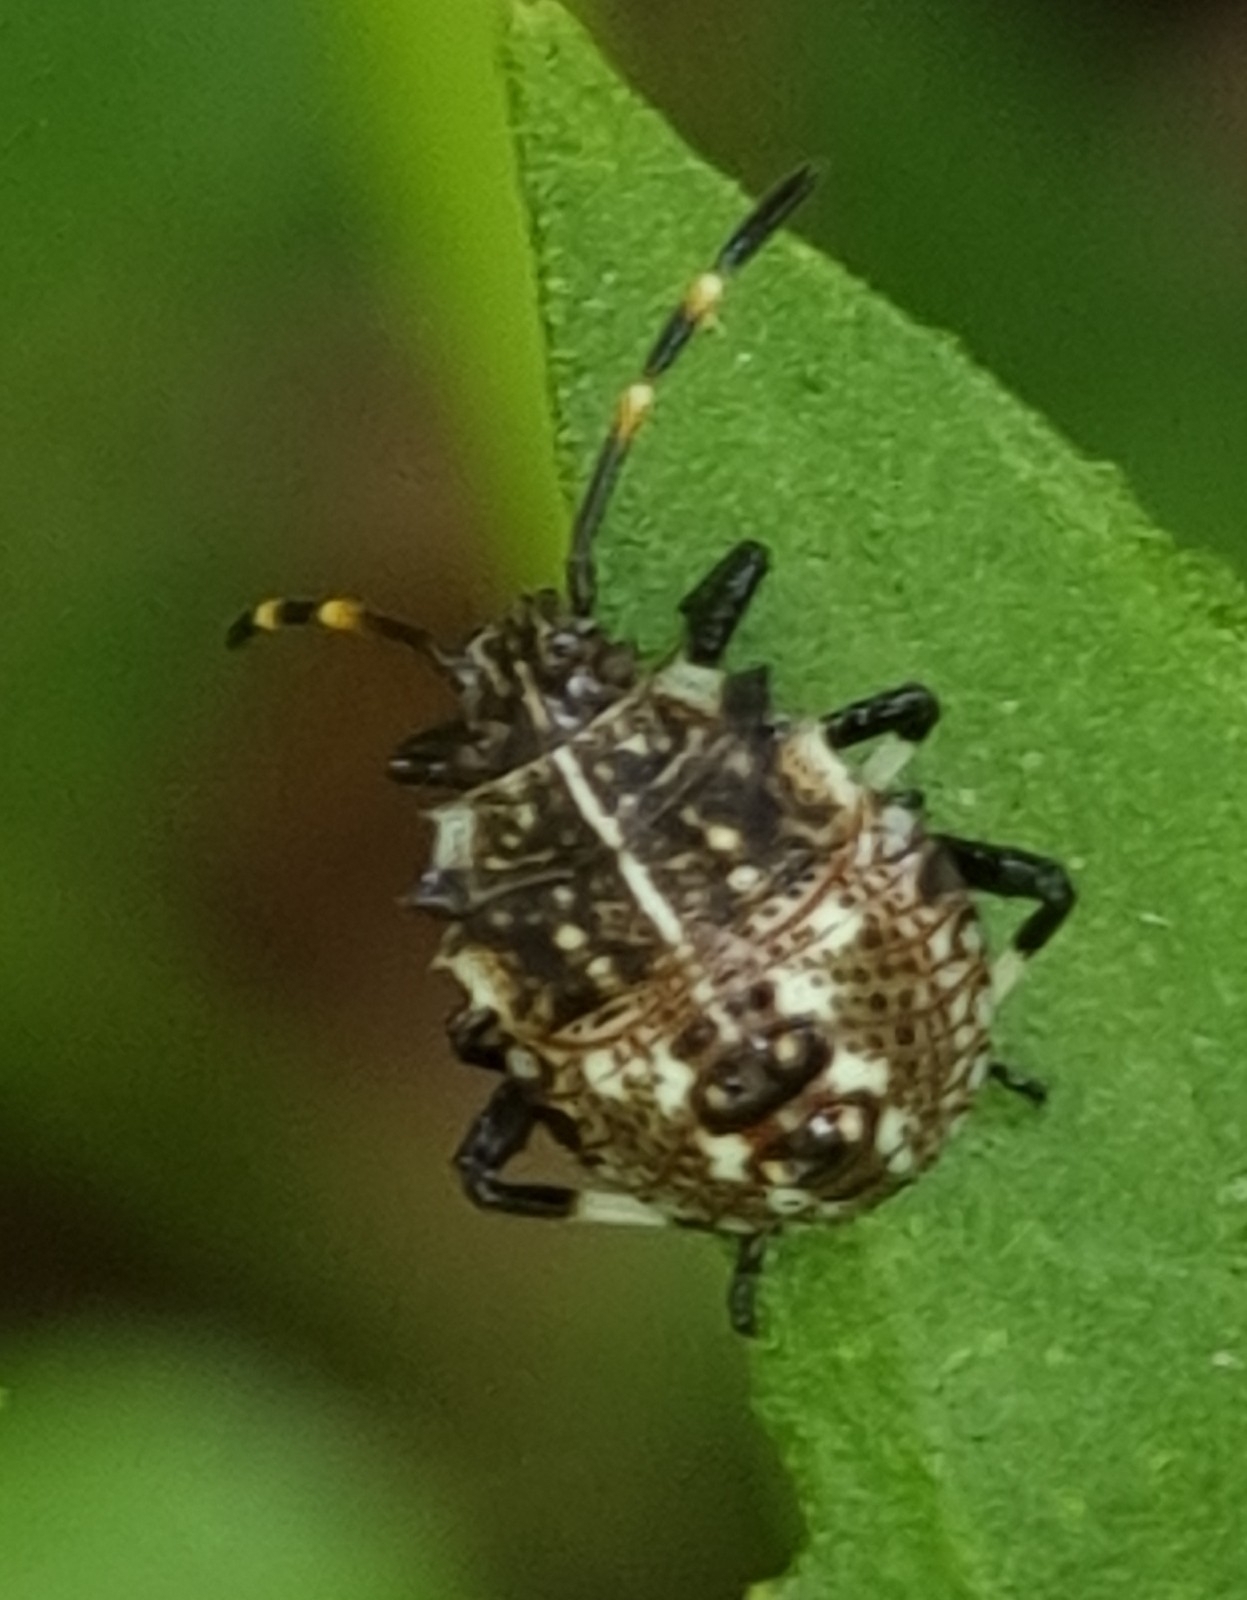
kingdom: Animalia
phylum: Arthropoda
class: Insecta
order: Hemiptera
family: Pentatomidae
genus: Oncocoris
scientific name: Oncocoris
